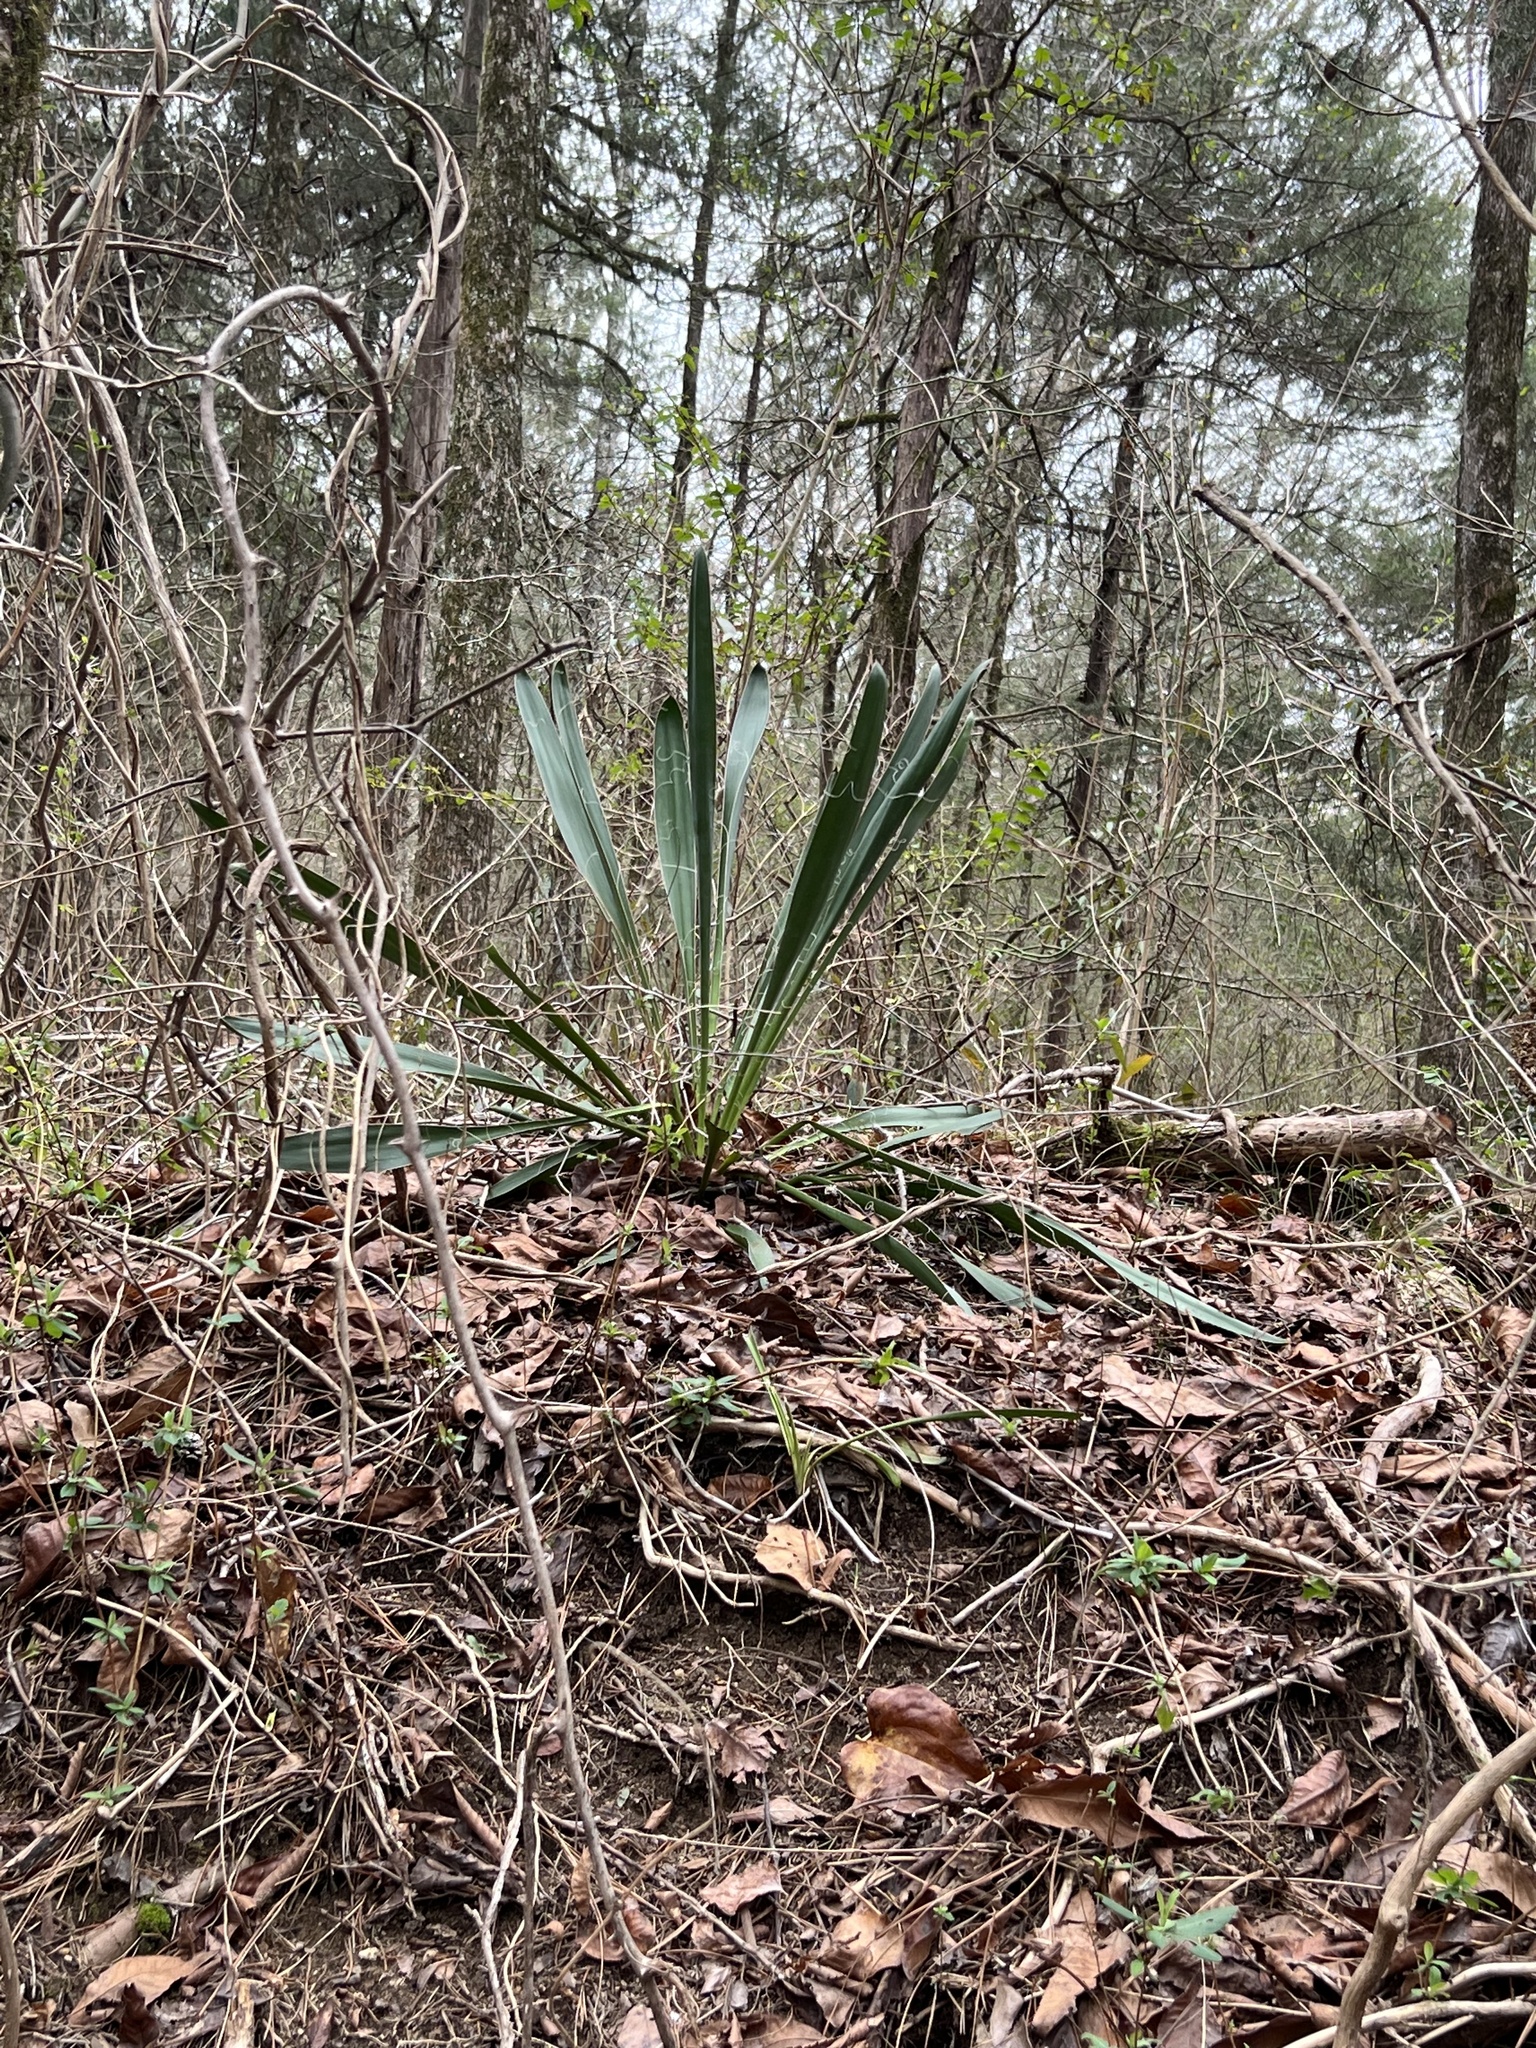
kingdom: Plantae
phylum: Tracheophyta
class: Liliopsida
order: Asparagales
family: Asparagaceae
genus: Yucca
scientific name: Yucca filamentosa
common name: Adam's-needle
